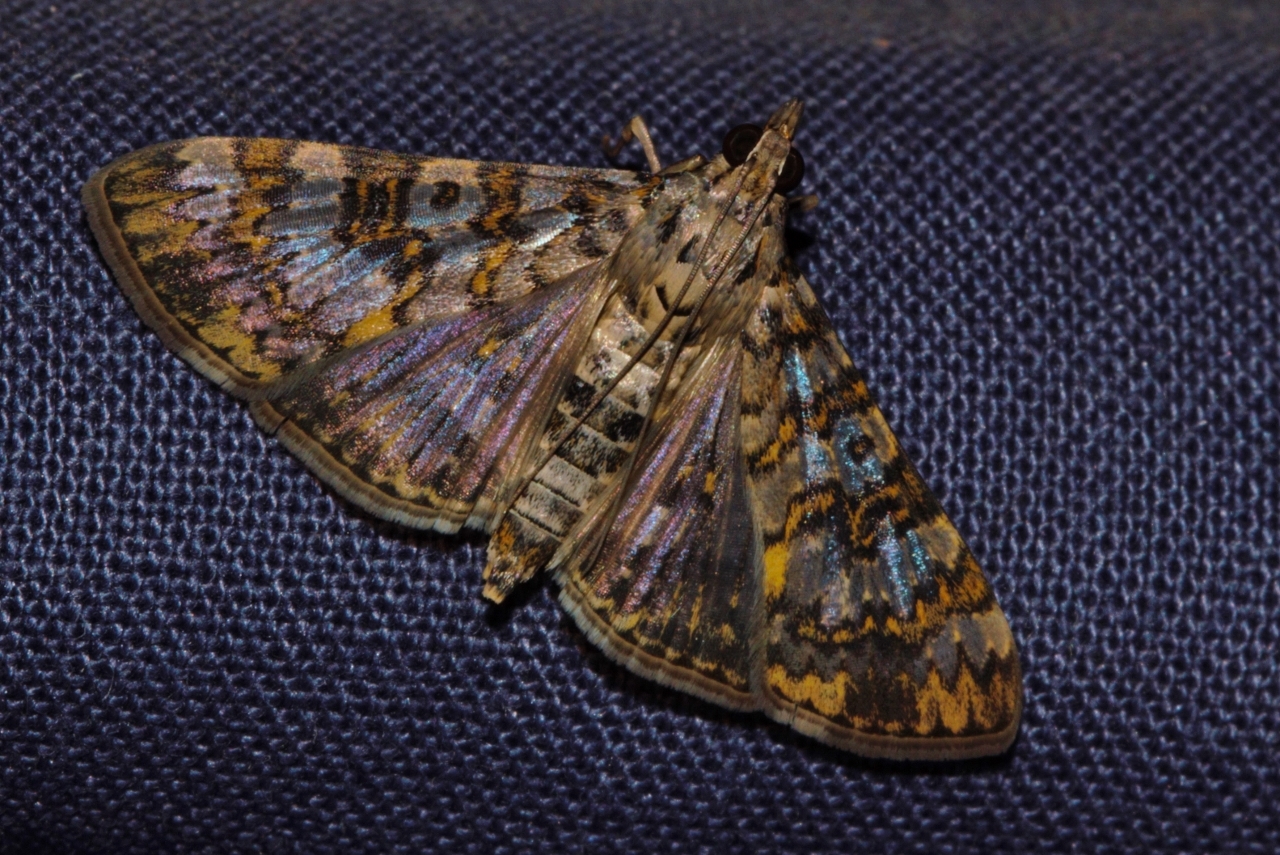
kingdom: Animalia
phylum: Arthropoda
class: Insecta
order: Lepidoptera
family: Crambidae
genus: Dysallacta
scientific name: Dysallacta negatalis
